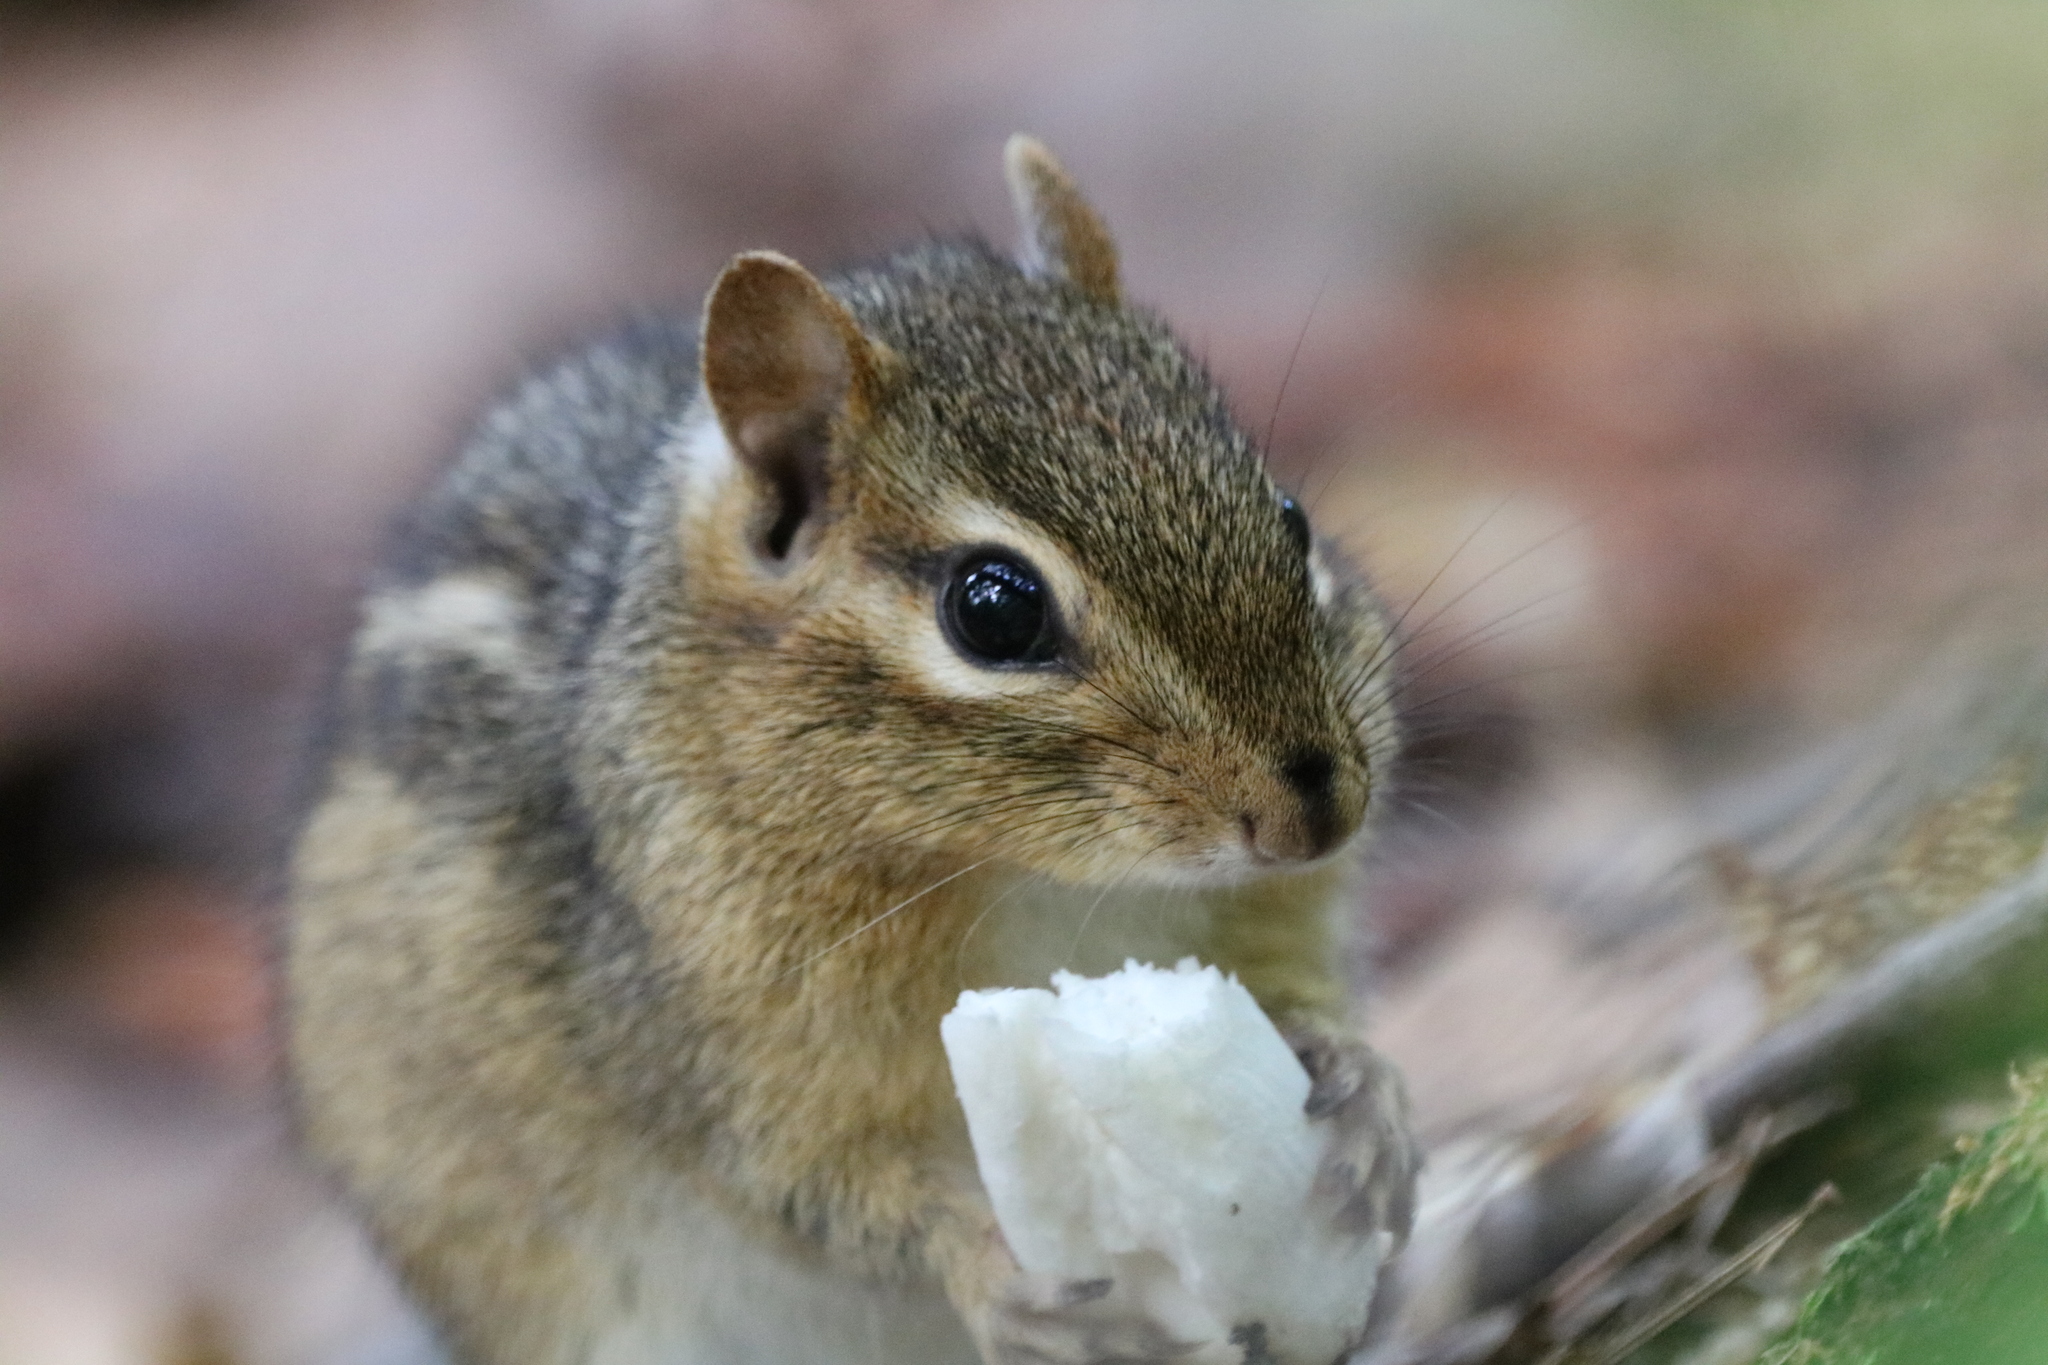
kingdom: Animalia
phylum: Chordata
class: Mammalia
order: Rodentia
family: Sciuridae
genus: Tamias
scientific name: Tamias striatus
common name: Eastern chipmunk
